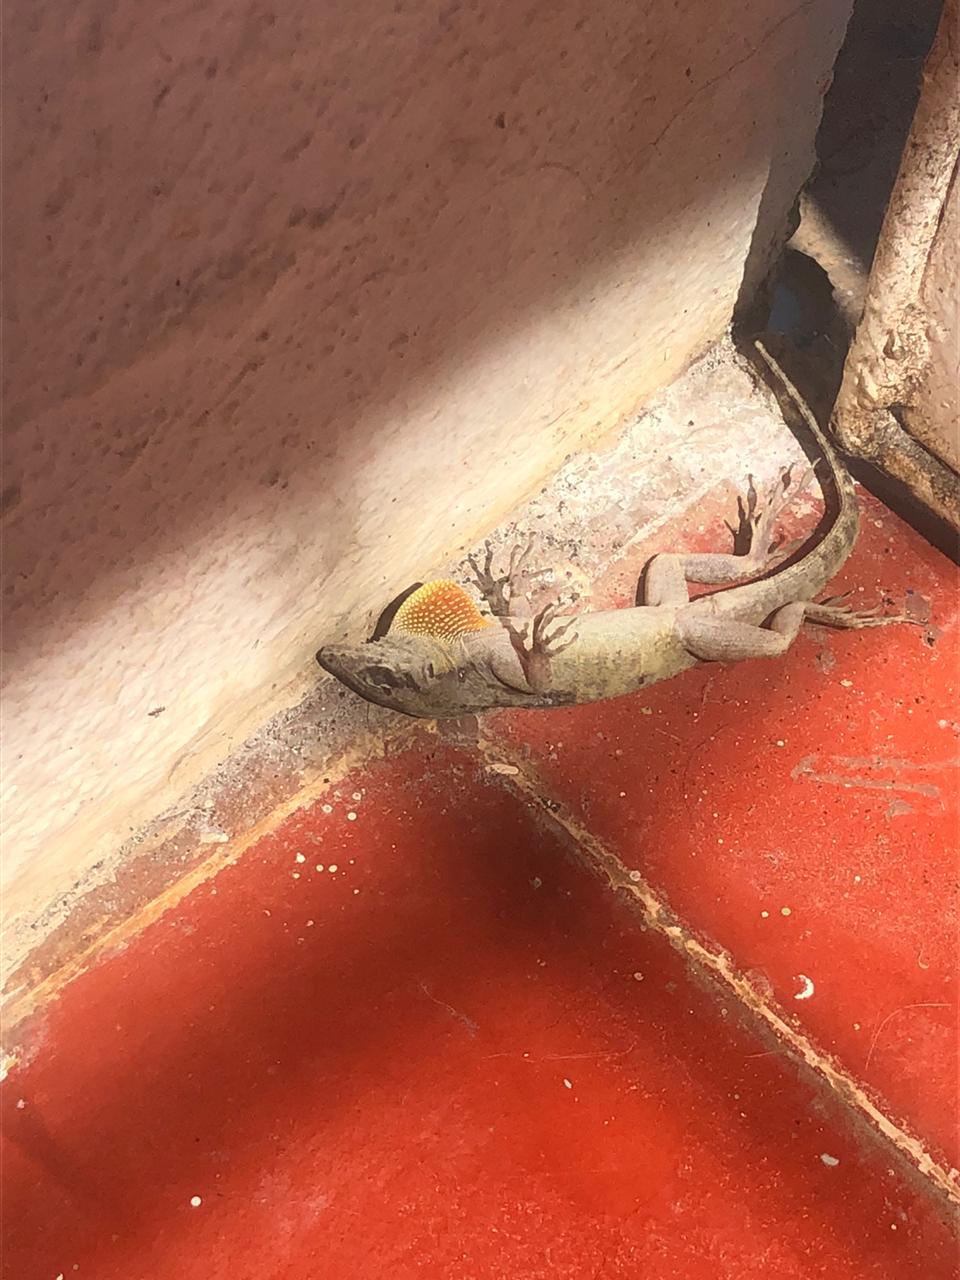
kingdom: Animalia
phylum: Chordata
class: Squamata
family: Dactyloidae
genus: Anolis
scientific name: Anolis sagrei
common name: Brown anole
